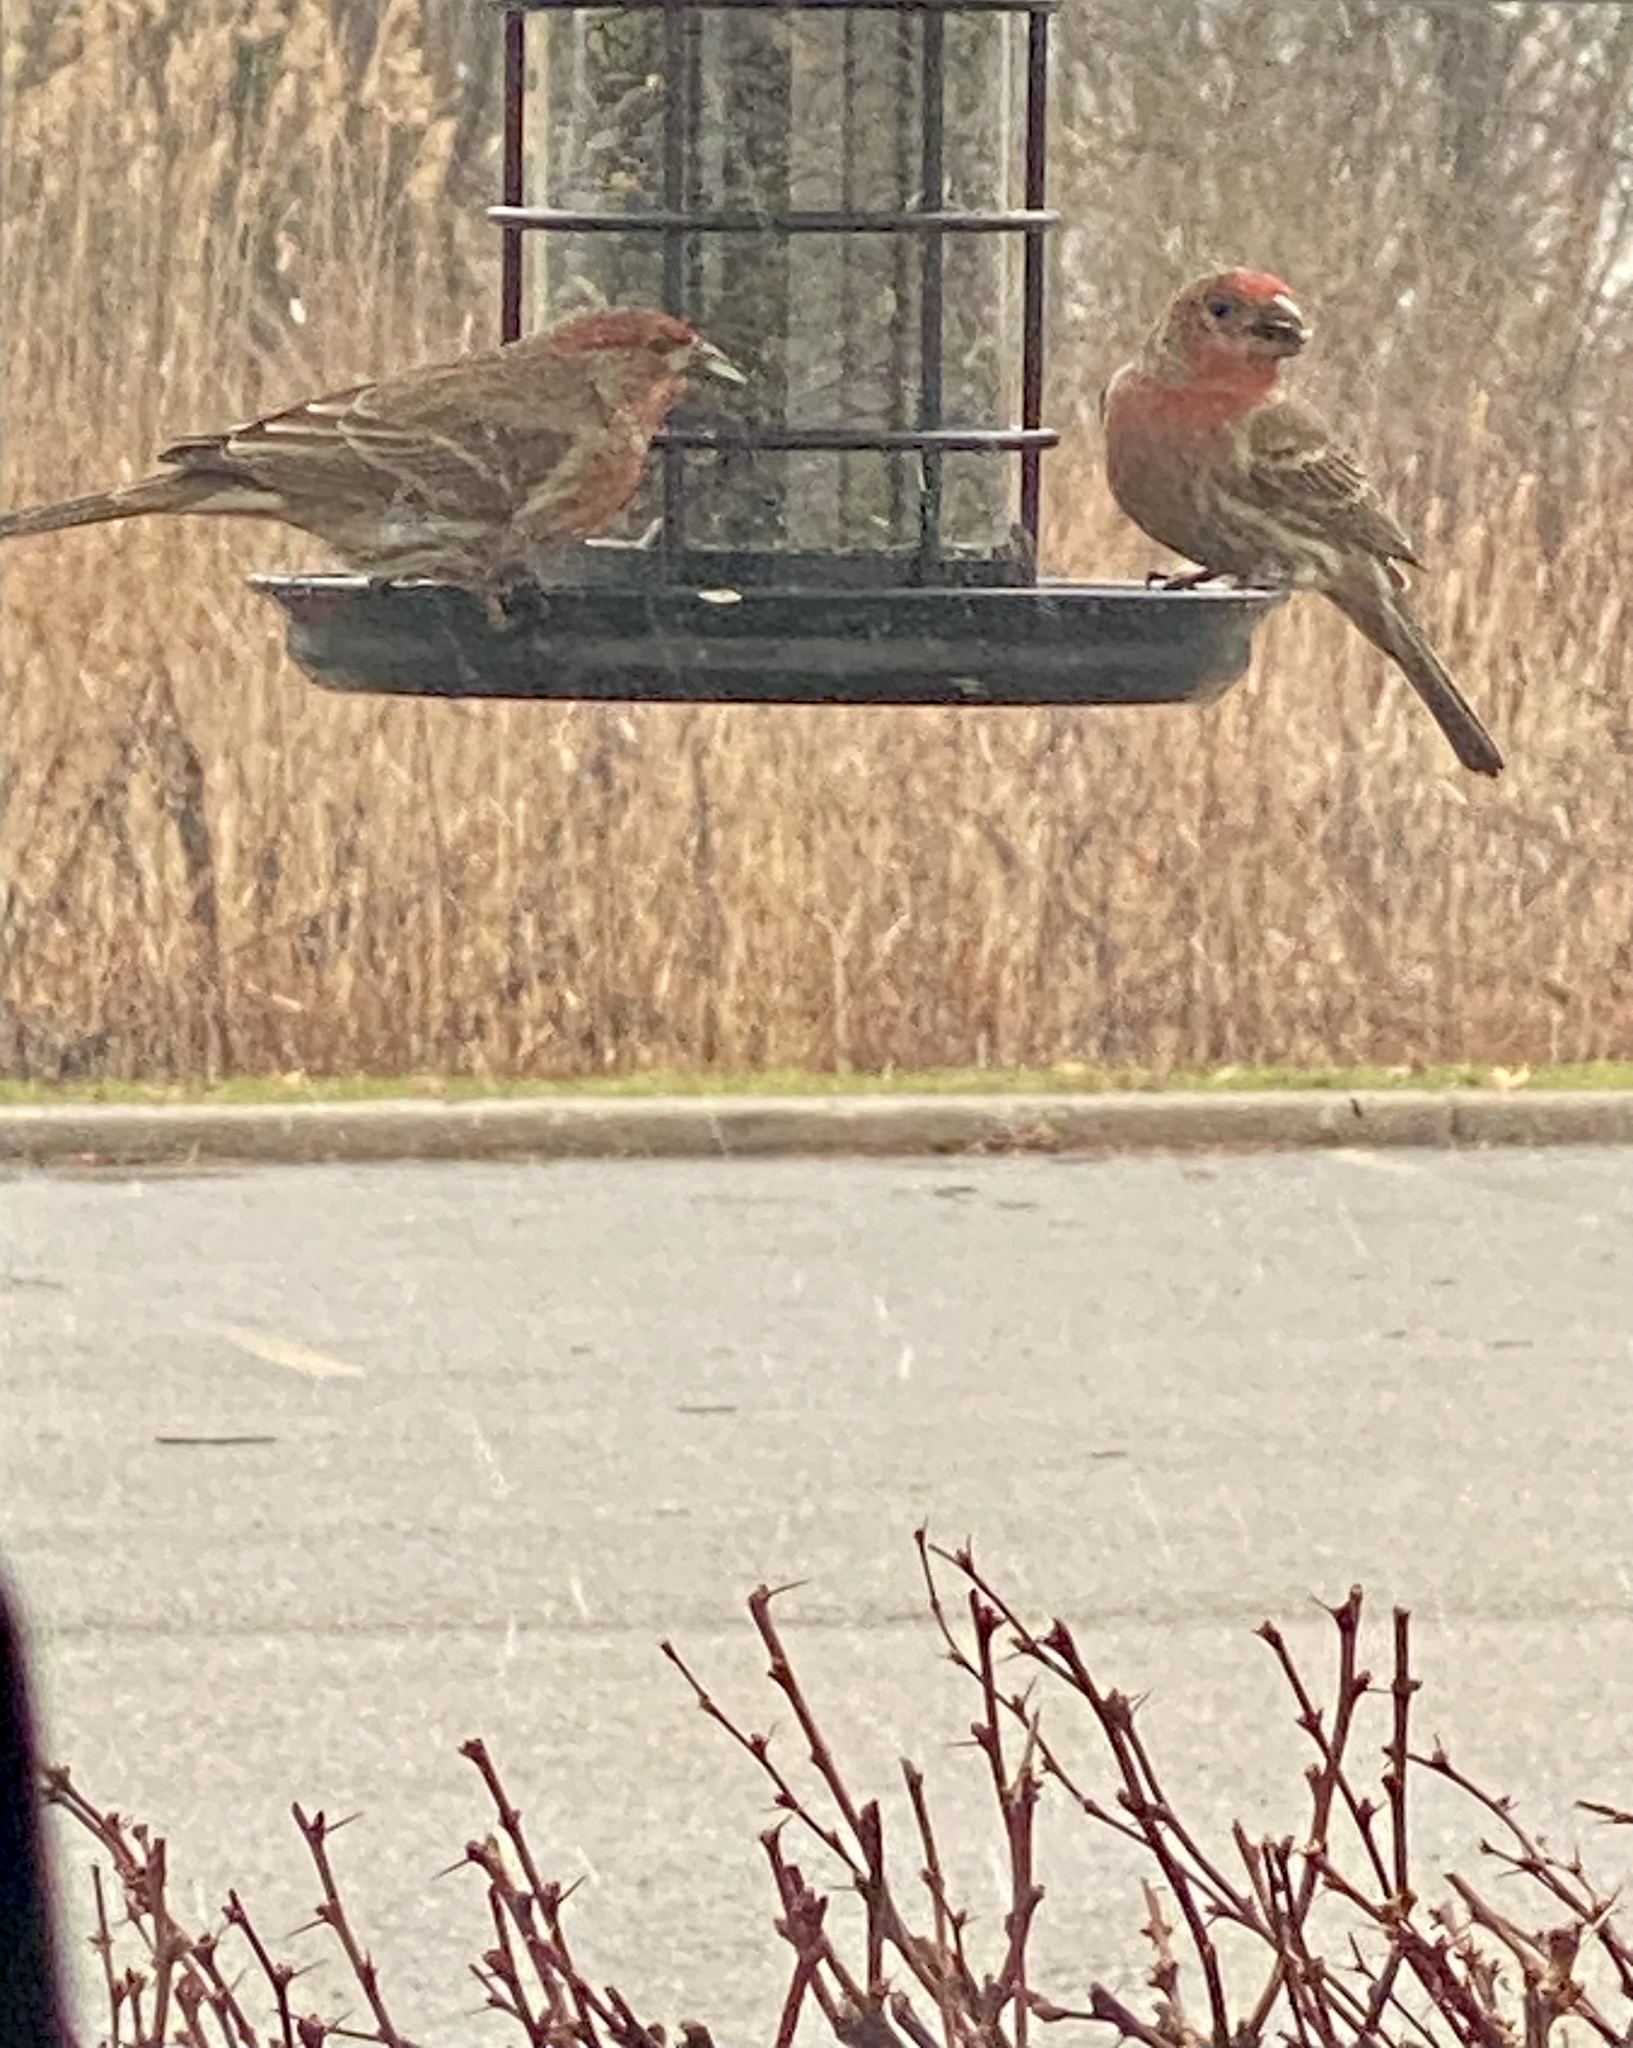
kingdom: Animalia
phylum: Chordata
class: Aves
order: Passeriformes
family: Fringillidae
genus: Haemorhous
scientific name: Haemorhous mexicanus
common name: House finch
